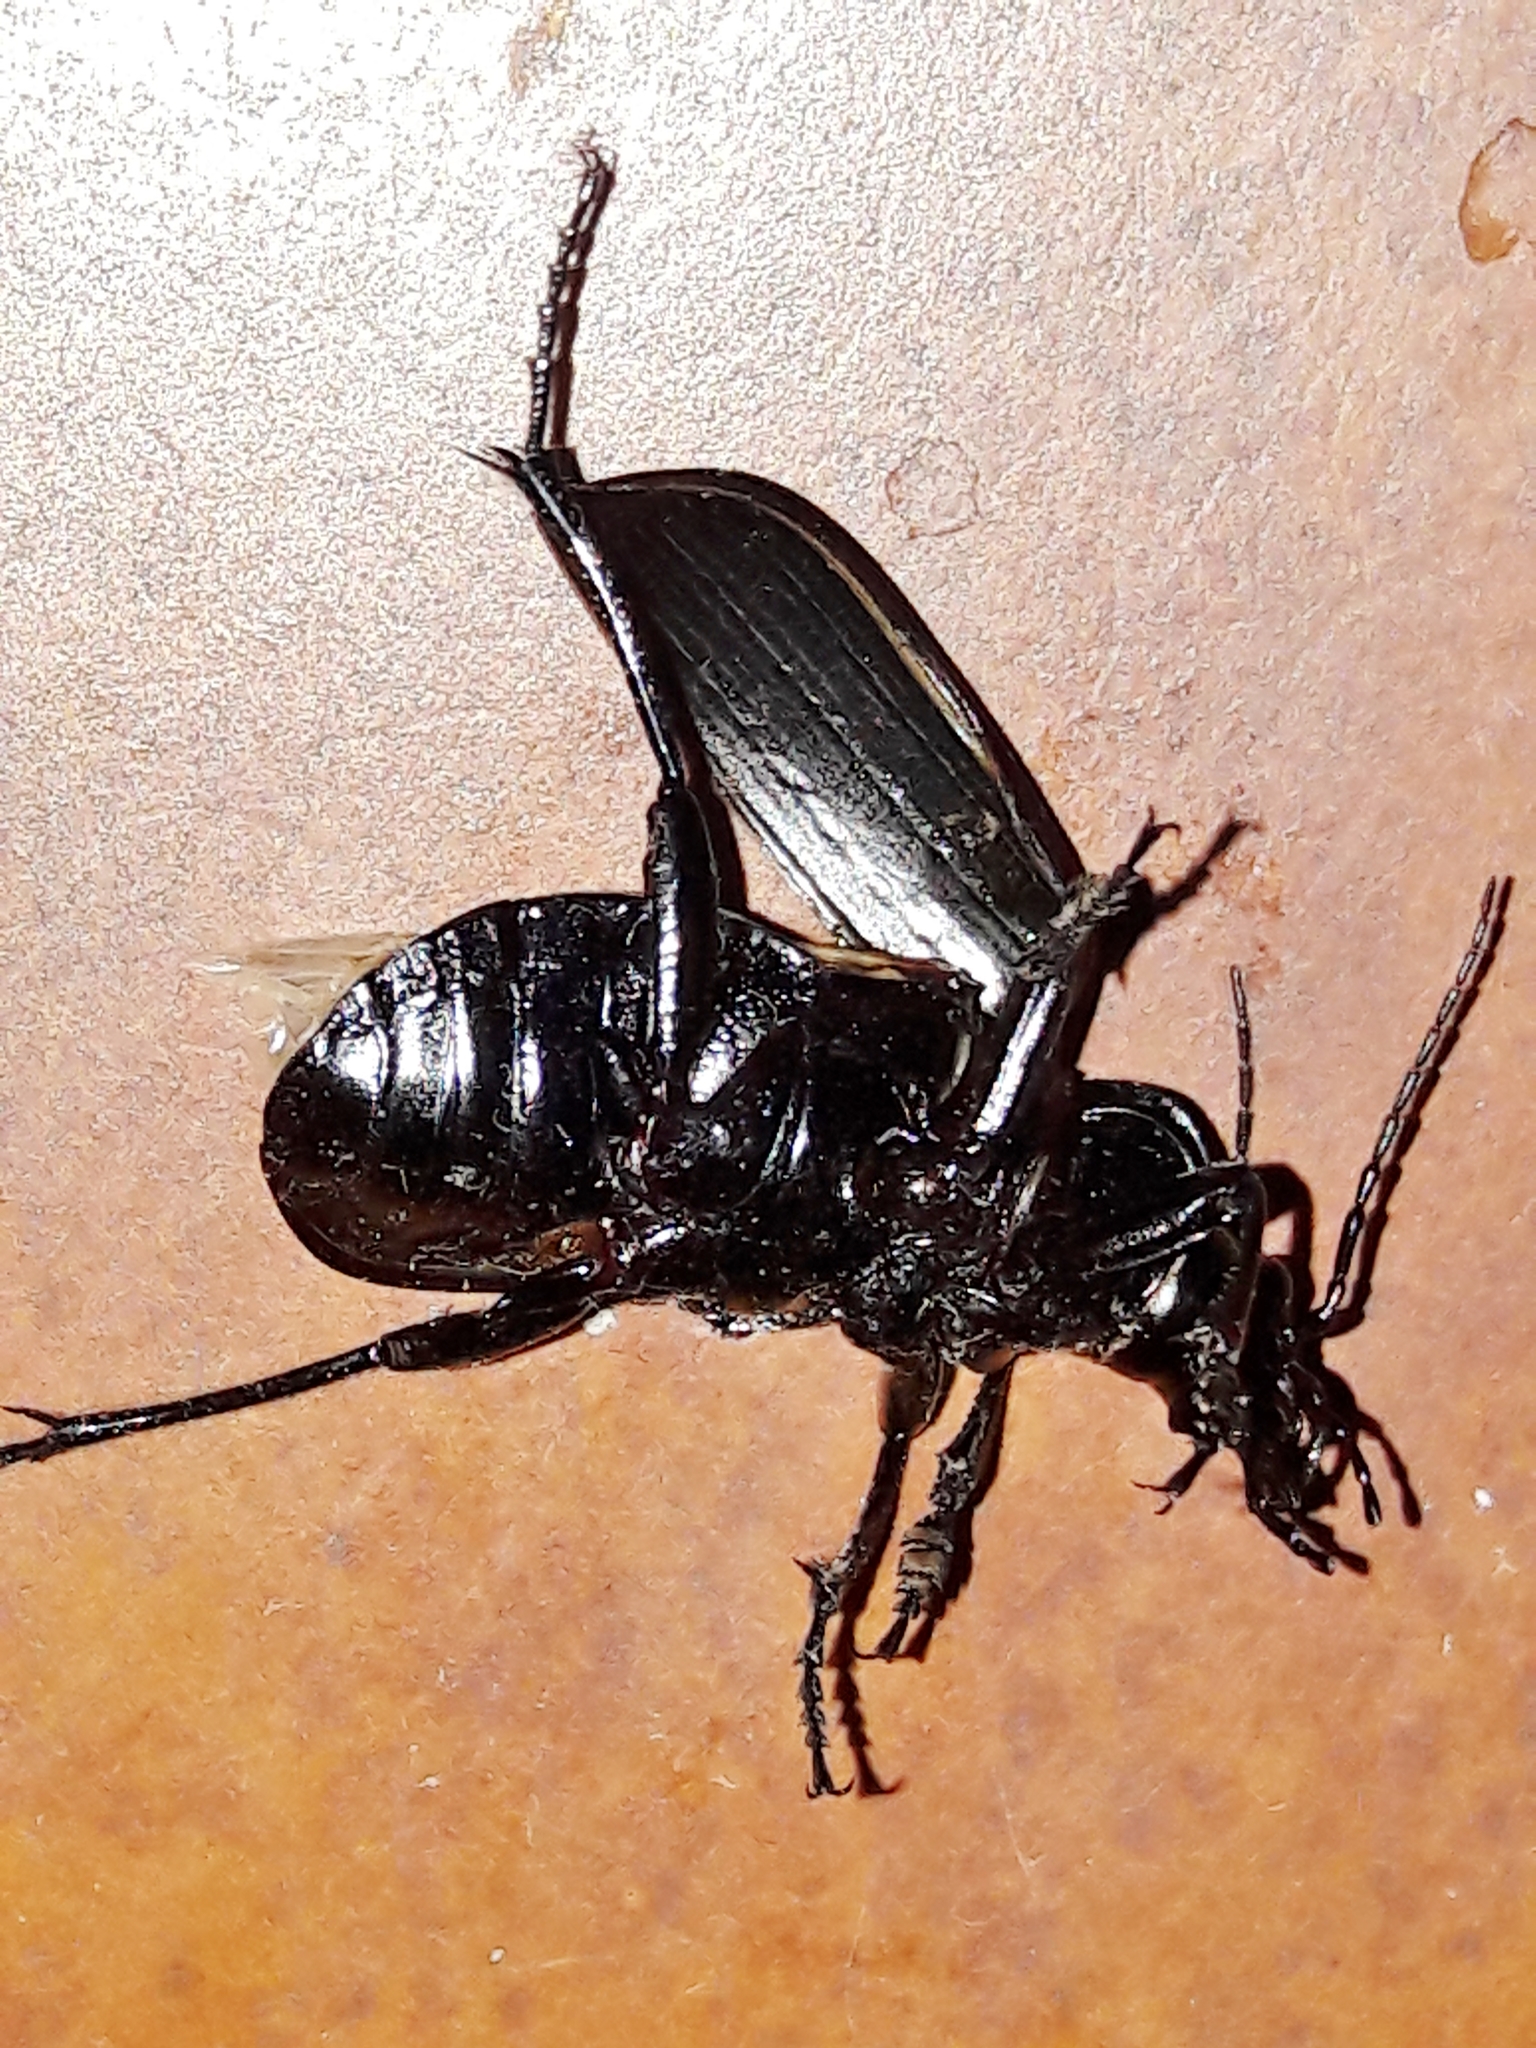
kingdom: Animalia
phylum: Arthropoda
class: Insecta
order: Coleoptera
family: Carabidae
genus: Calosoma
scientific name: Calosoma alternans
